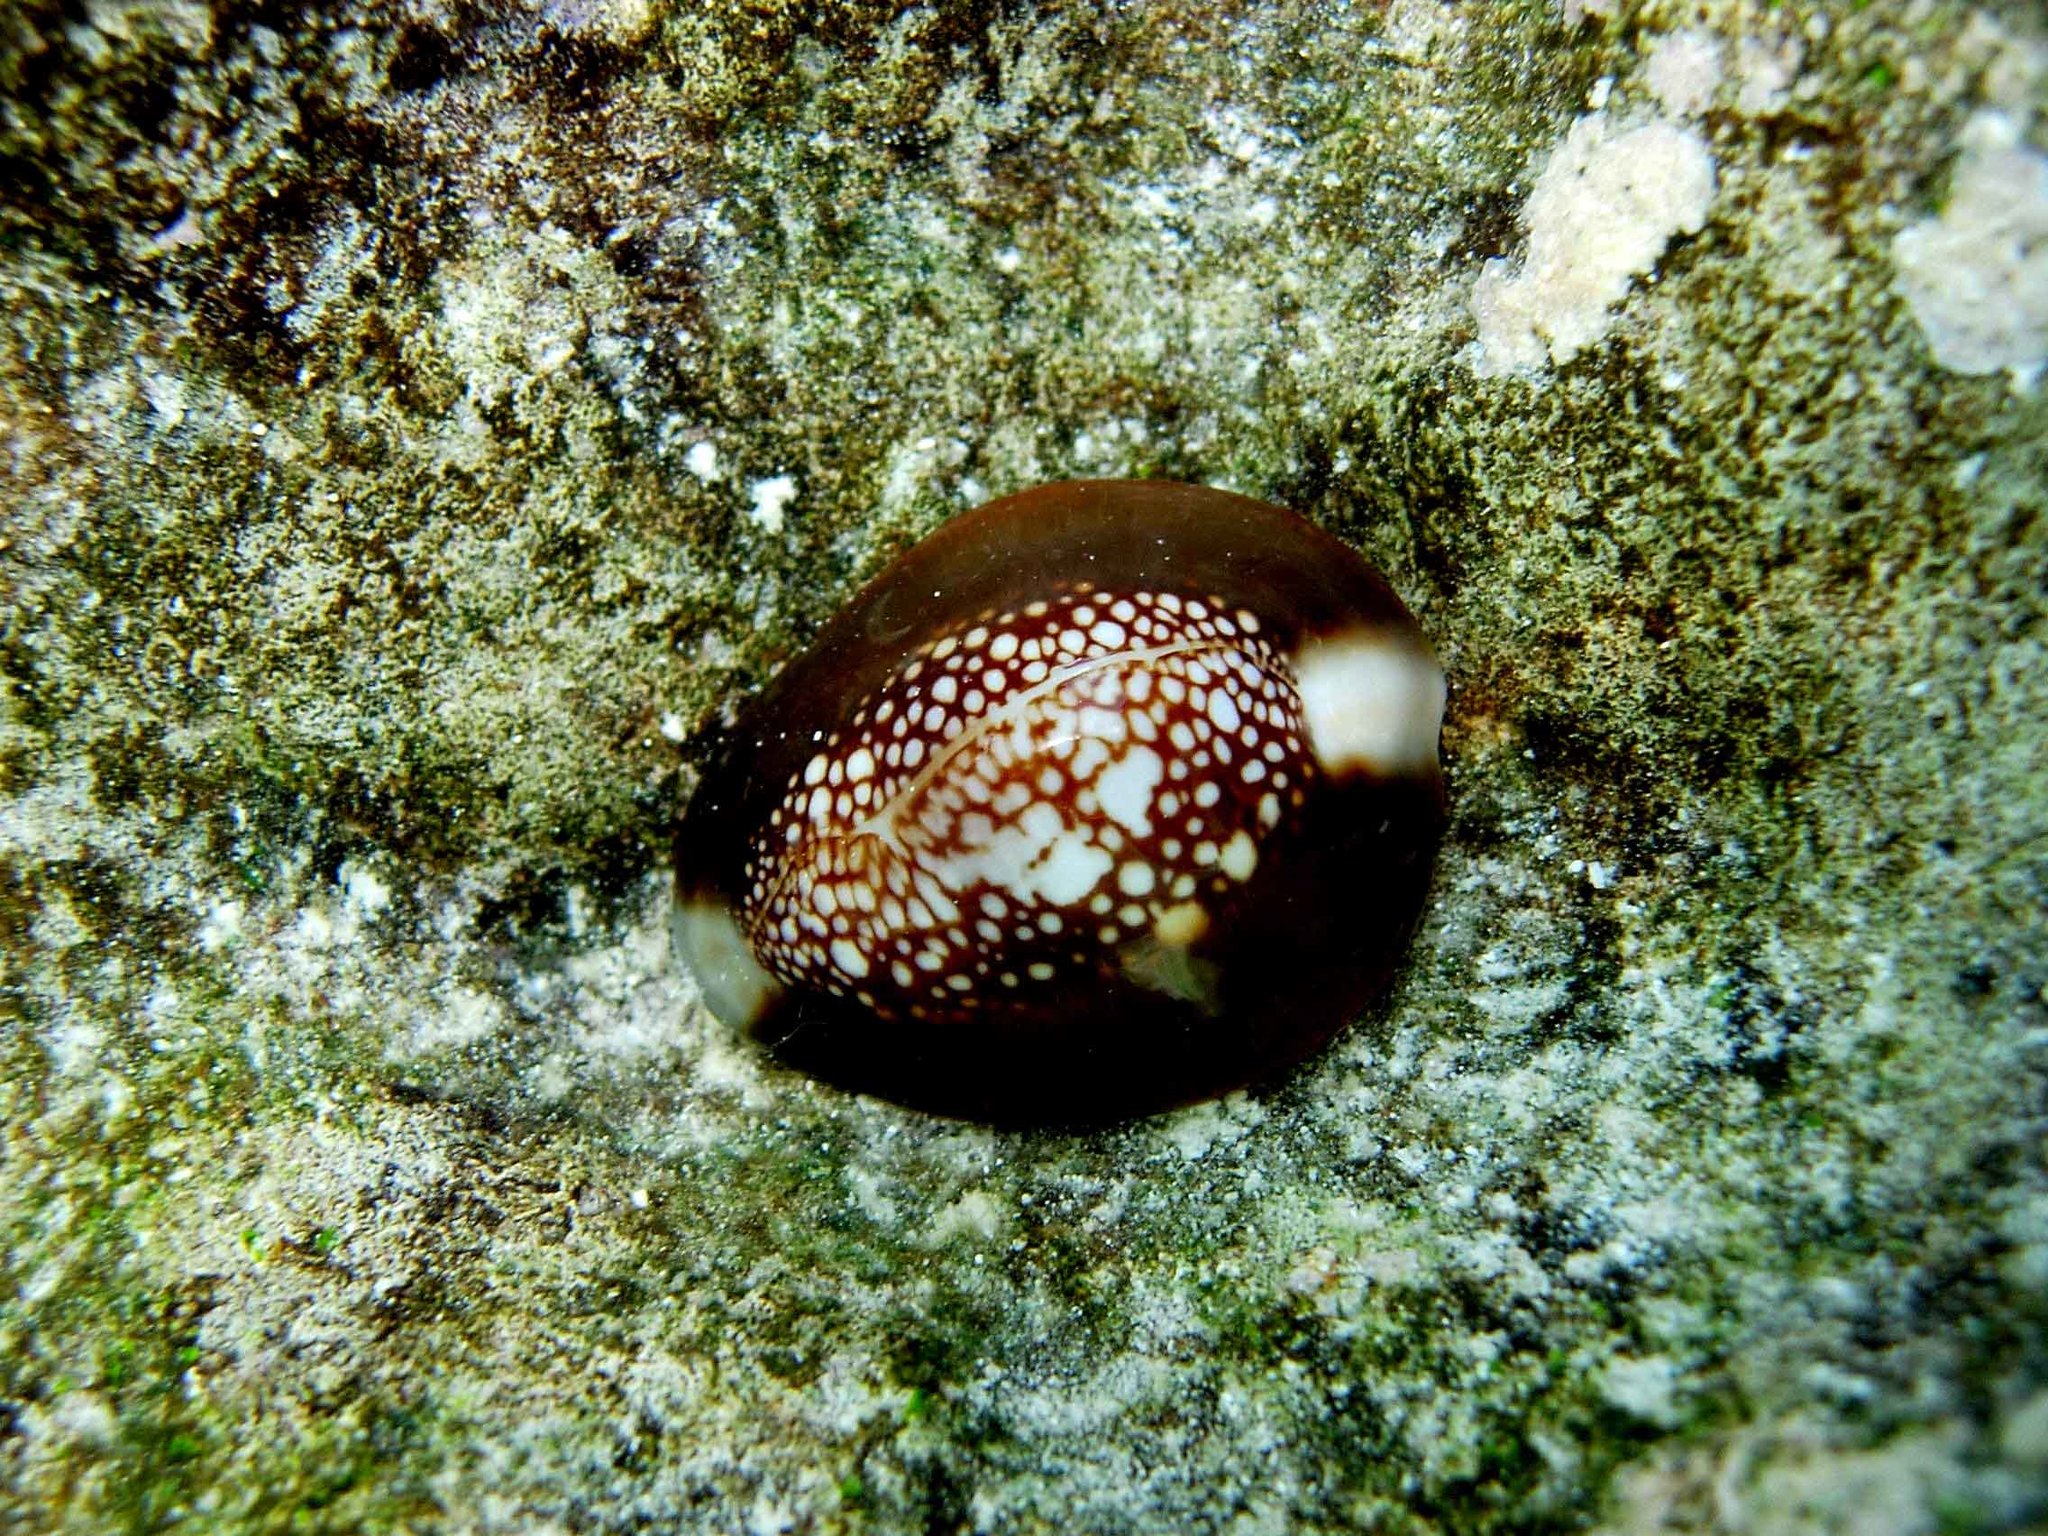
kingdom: Animalia
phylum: Mollusca
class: Gastropoda
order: Littorinimorpha
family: Cypraeidae
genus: Monetaria
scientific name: Monetaria caputserpentis
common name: Serpent's head cowrie
